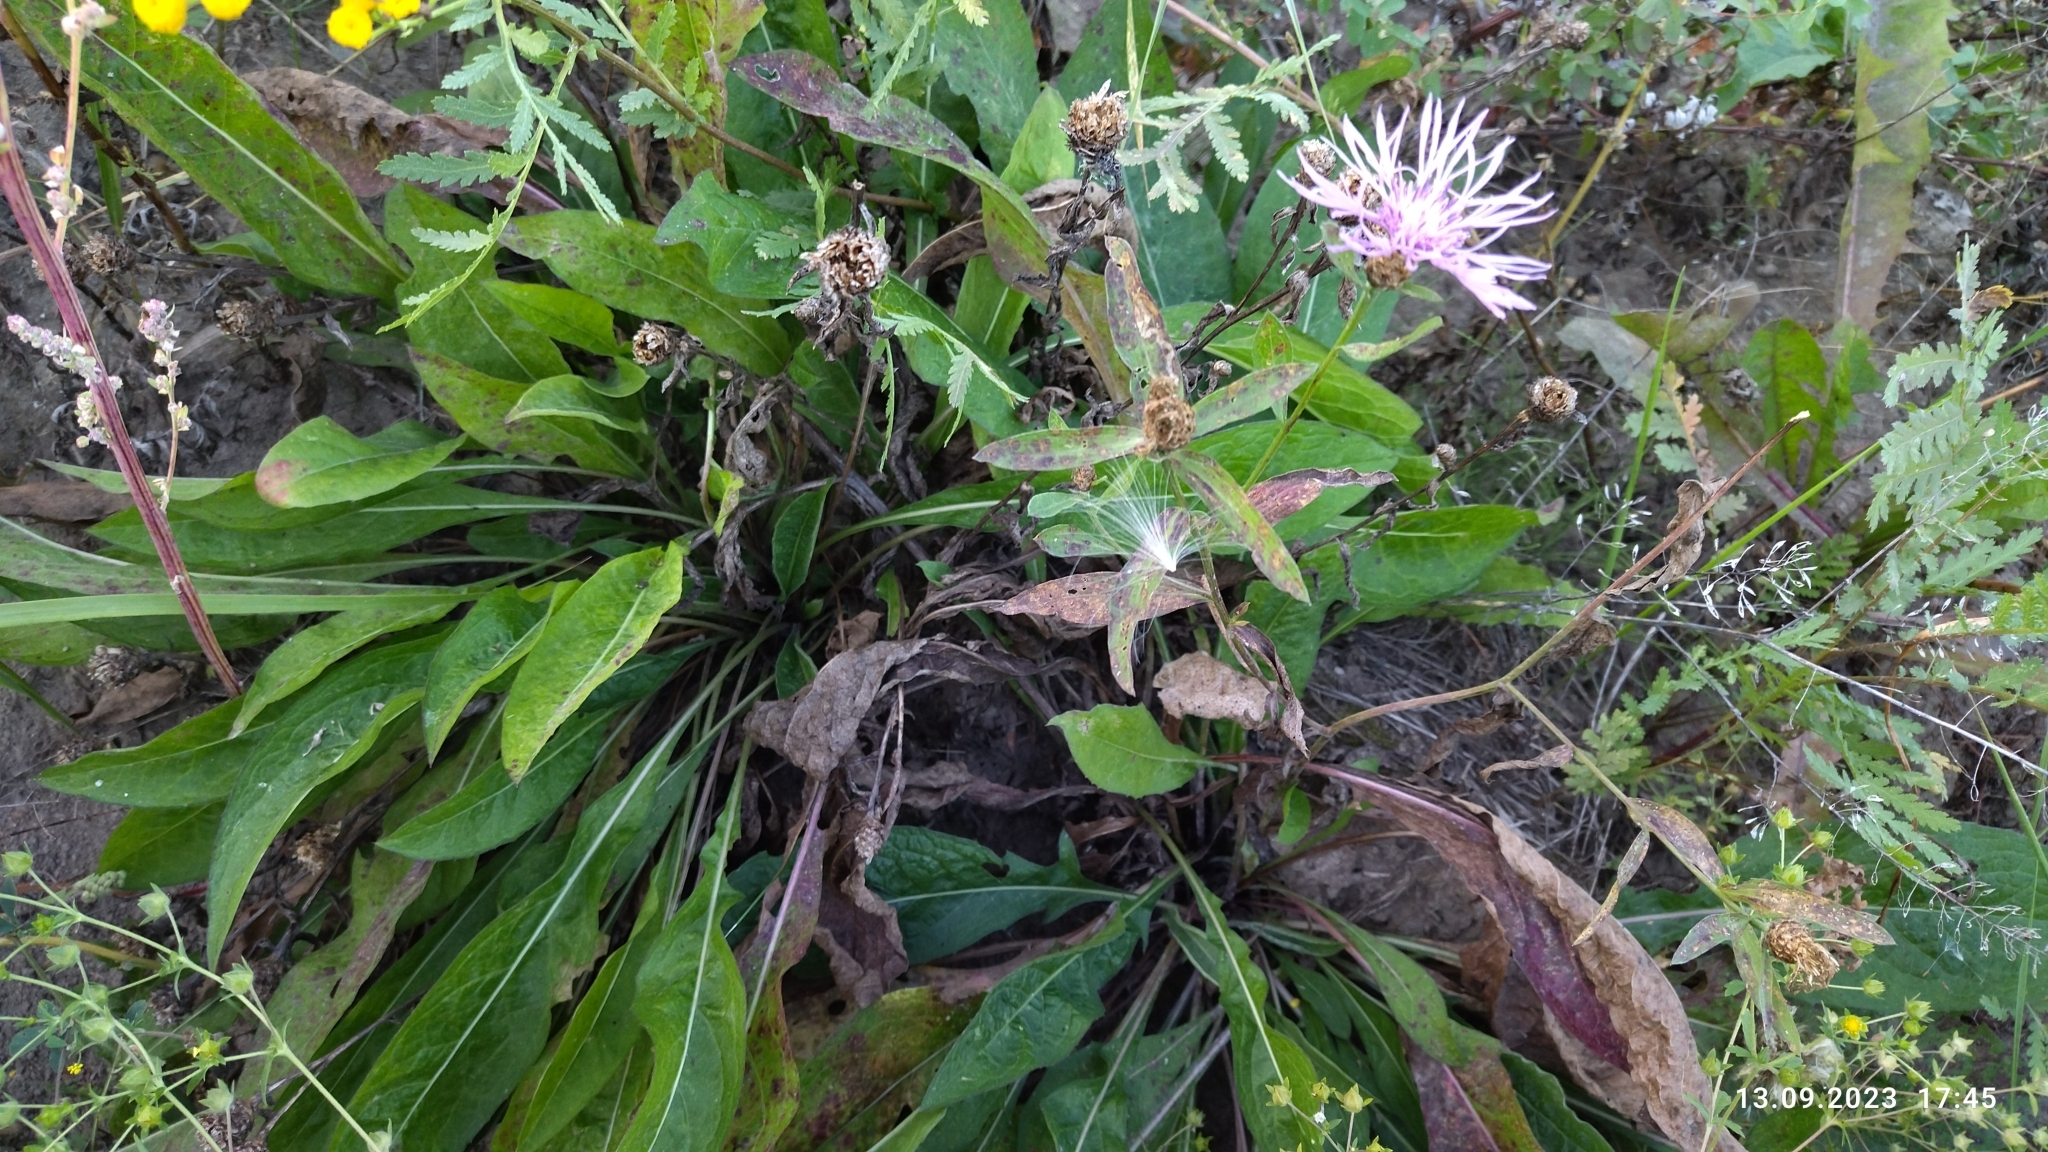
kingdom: Plantae
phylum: Tracheophyta
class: Magnoliopsida
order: Asterales
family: Asteraceae
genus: Centaurea
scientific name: Centaurea jacea
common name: Brown knapweed
